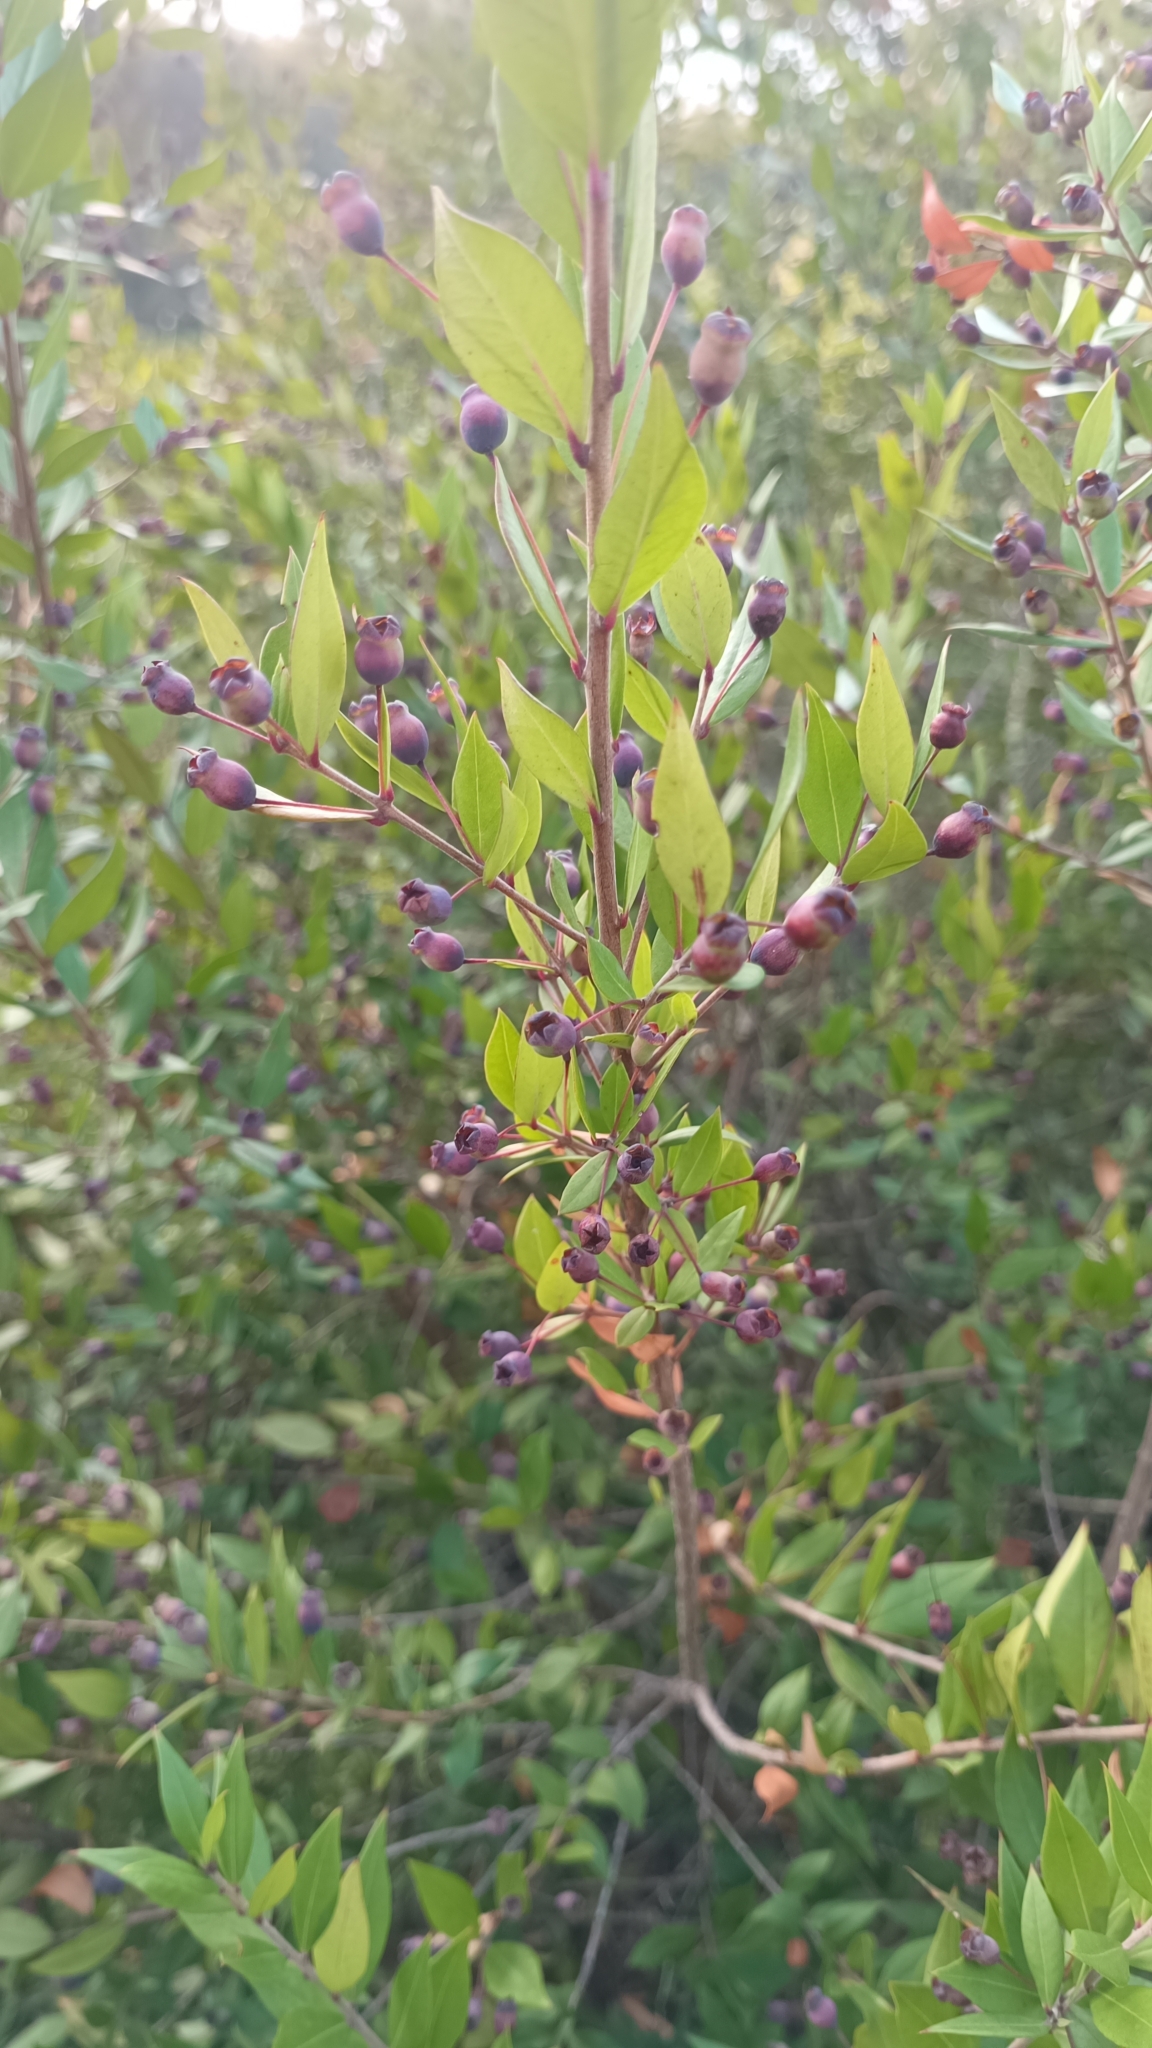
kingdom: Plantae
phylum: Tracheophyta
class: Magnoliopsida
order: Myrtales
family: Myrtaceae
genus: Myrtus
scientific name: Myrtus communis
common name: Myrtle
